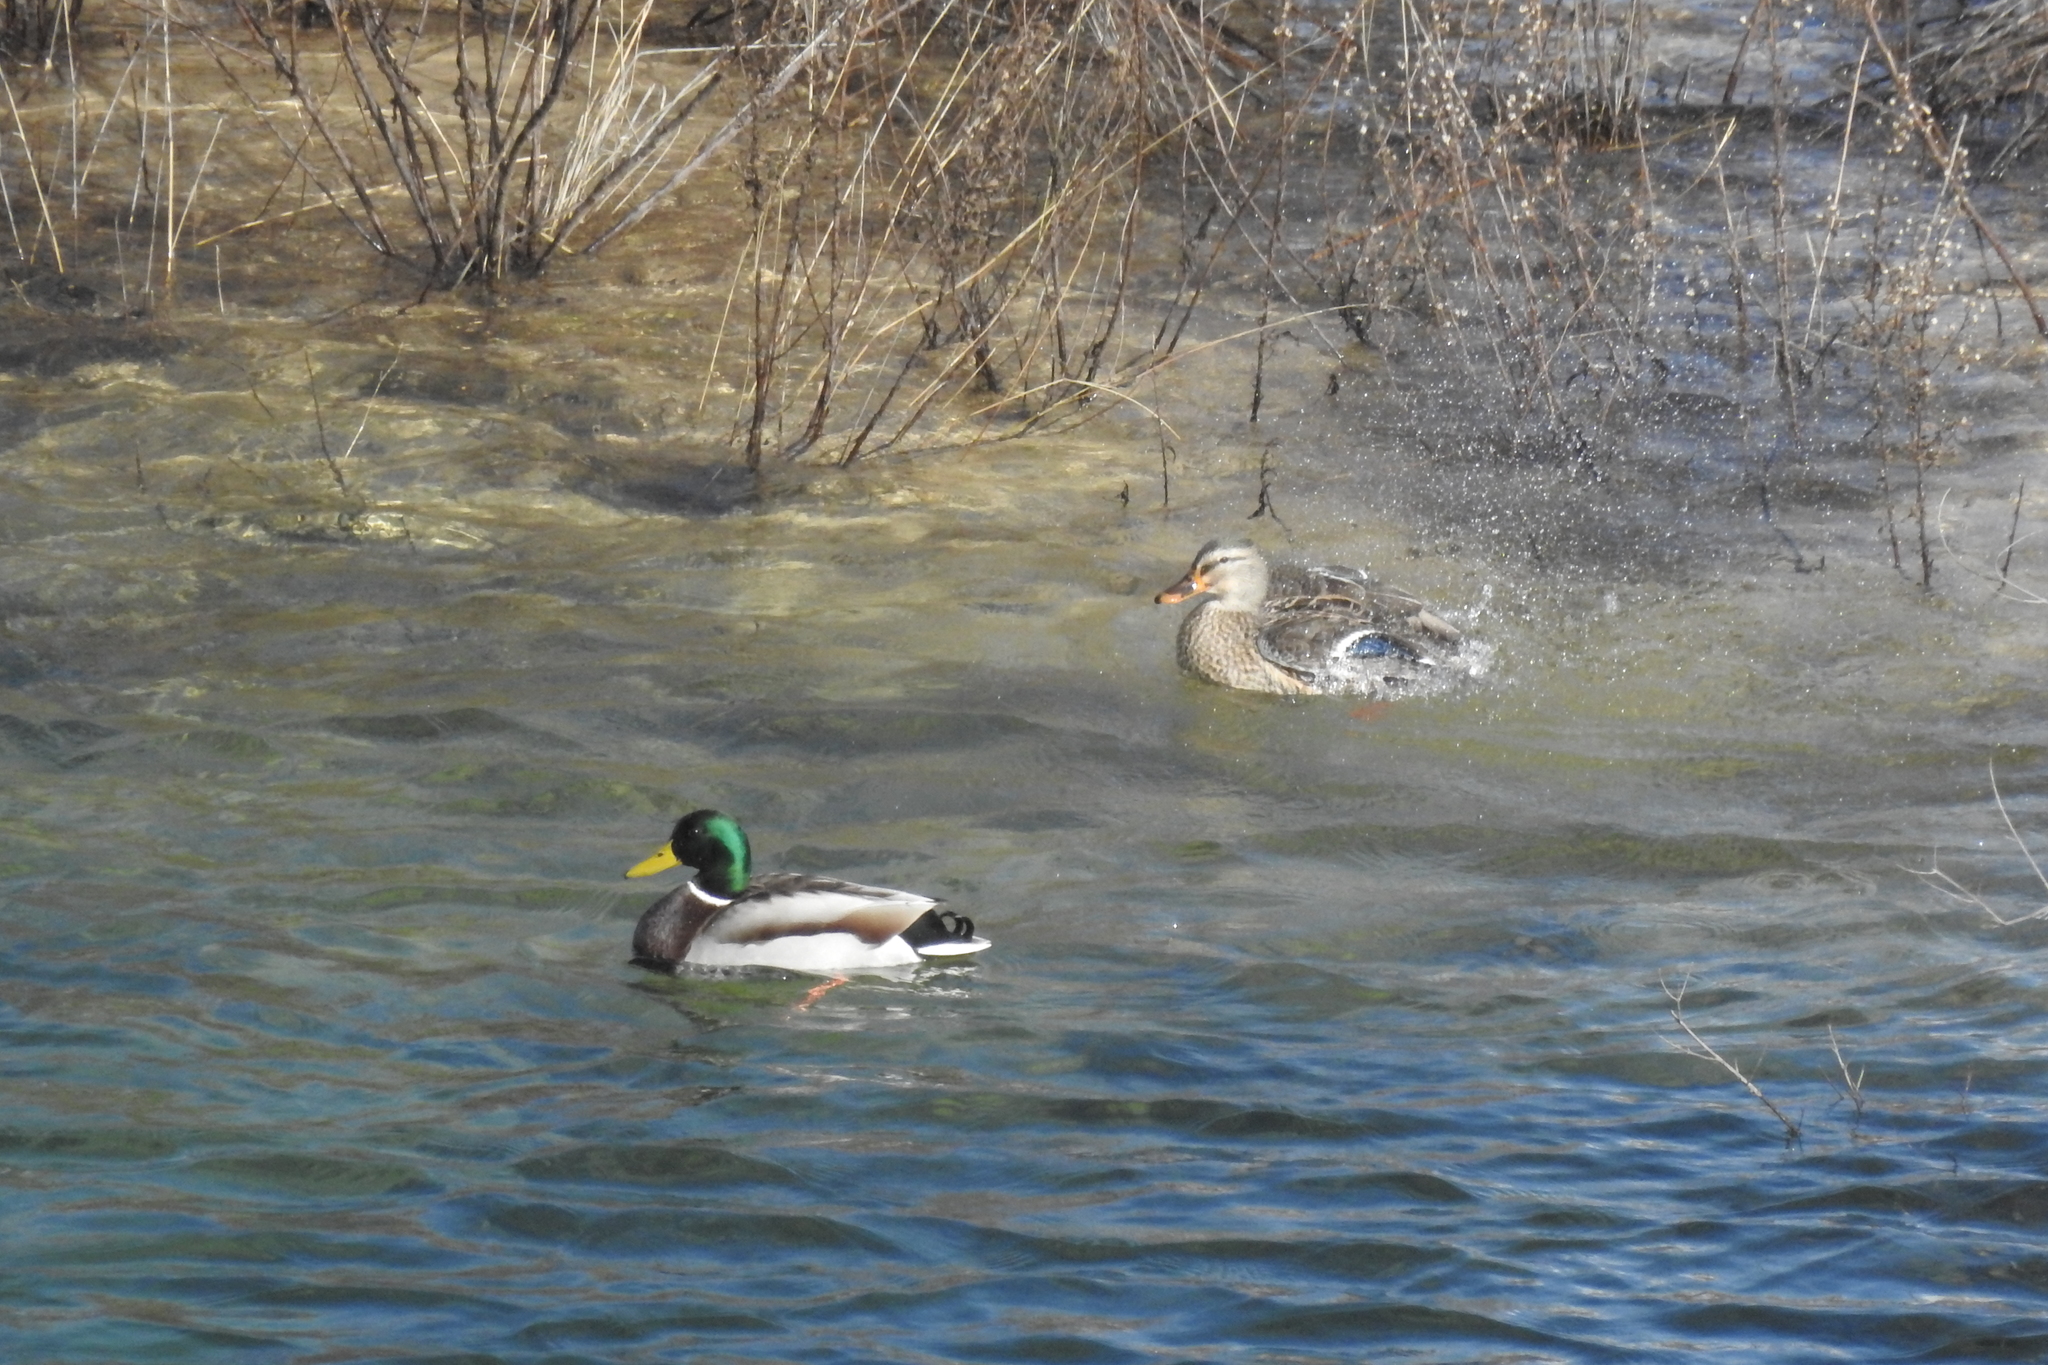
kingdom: Animalia
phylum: Chordata
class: Aves
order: Anseriformes
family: Anatidae
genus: Anas
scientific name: Anas platyrhynchos
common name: Mallard
